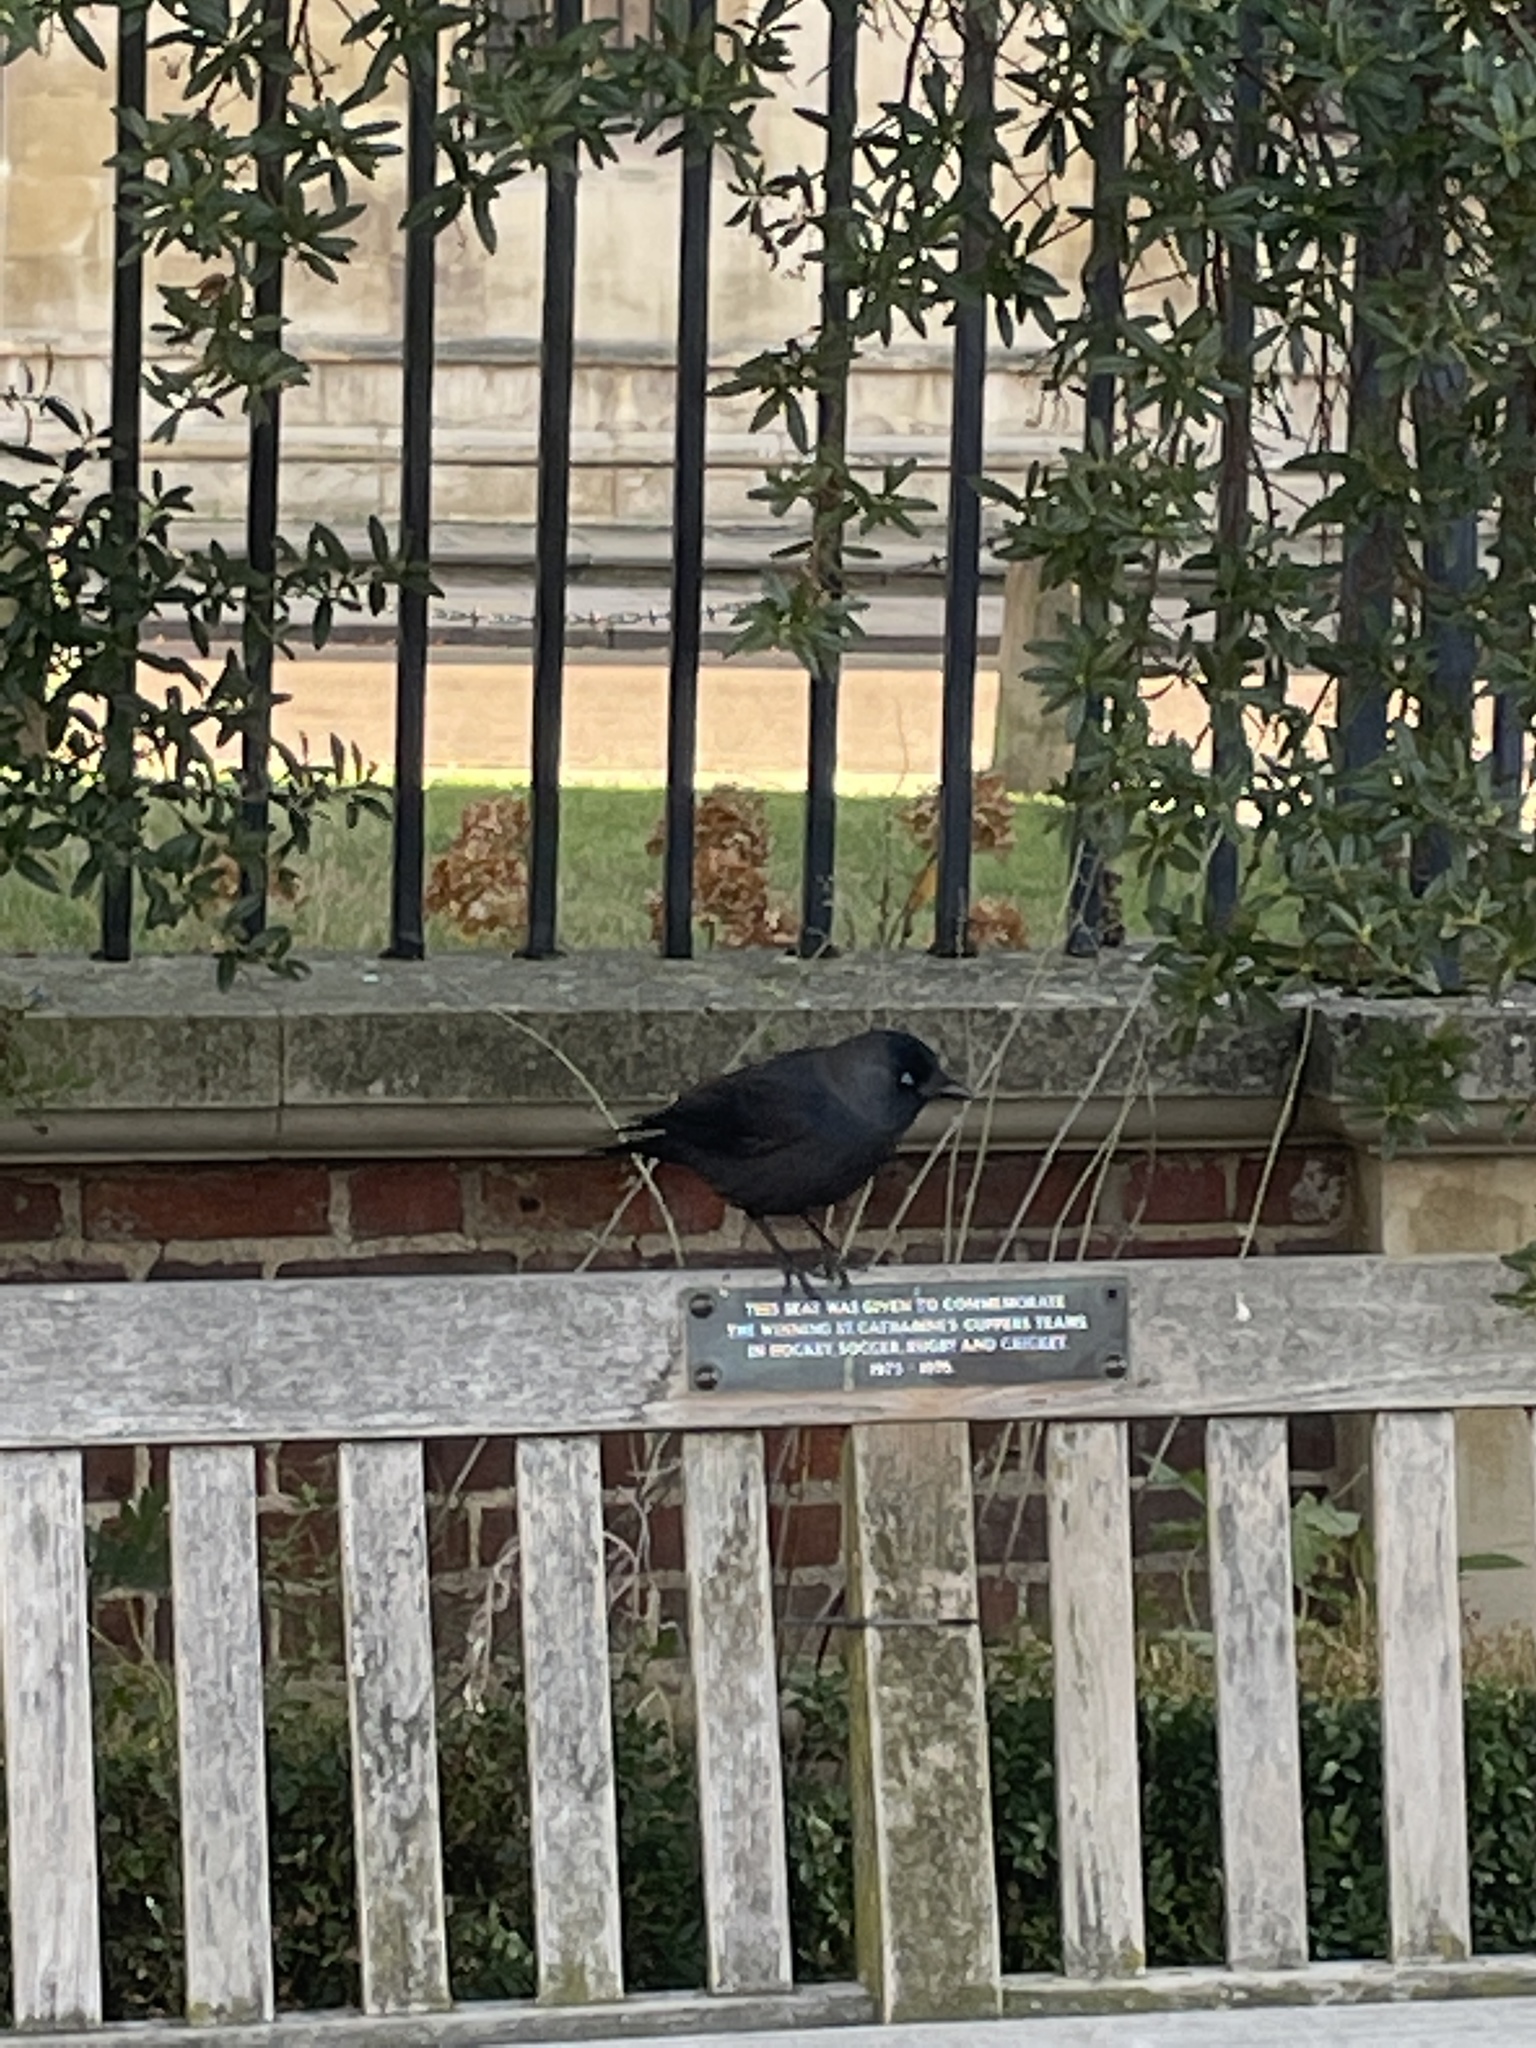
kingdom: Animalia
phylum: Chordata
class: Aves
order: Passeriformes
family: Corvidae
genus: Coloeus
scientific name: Coloeus monedula
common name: Western jackdaw
